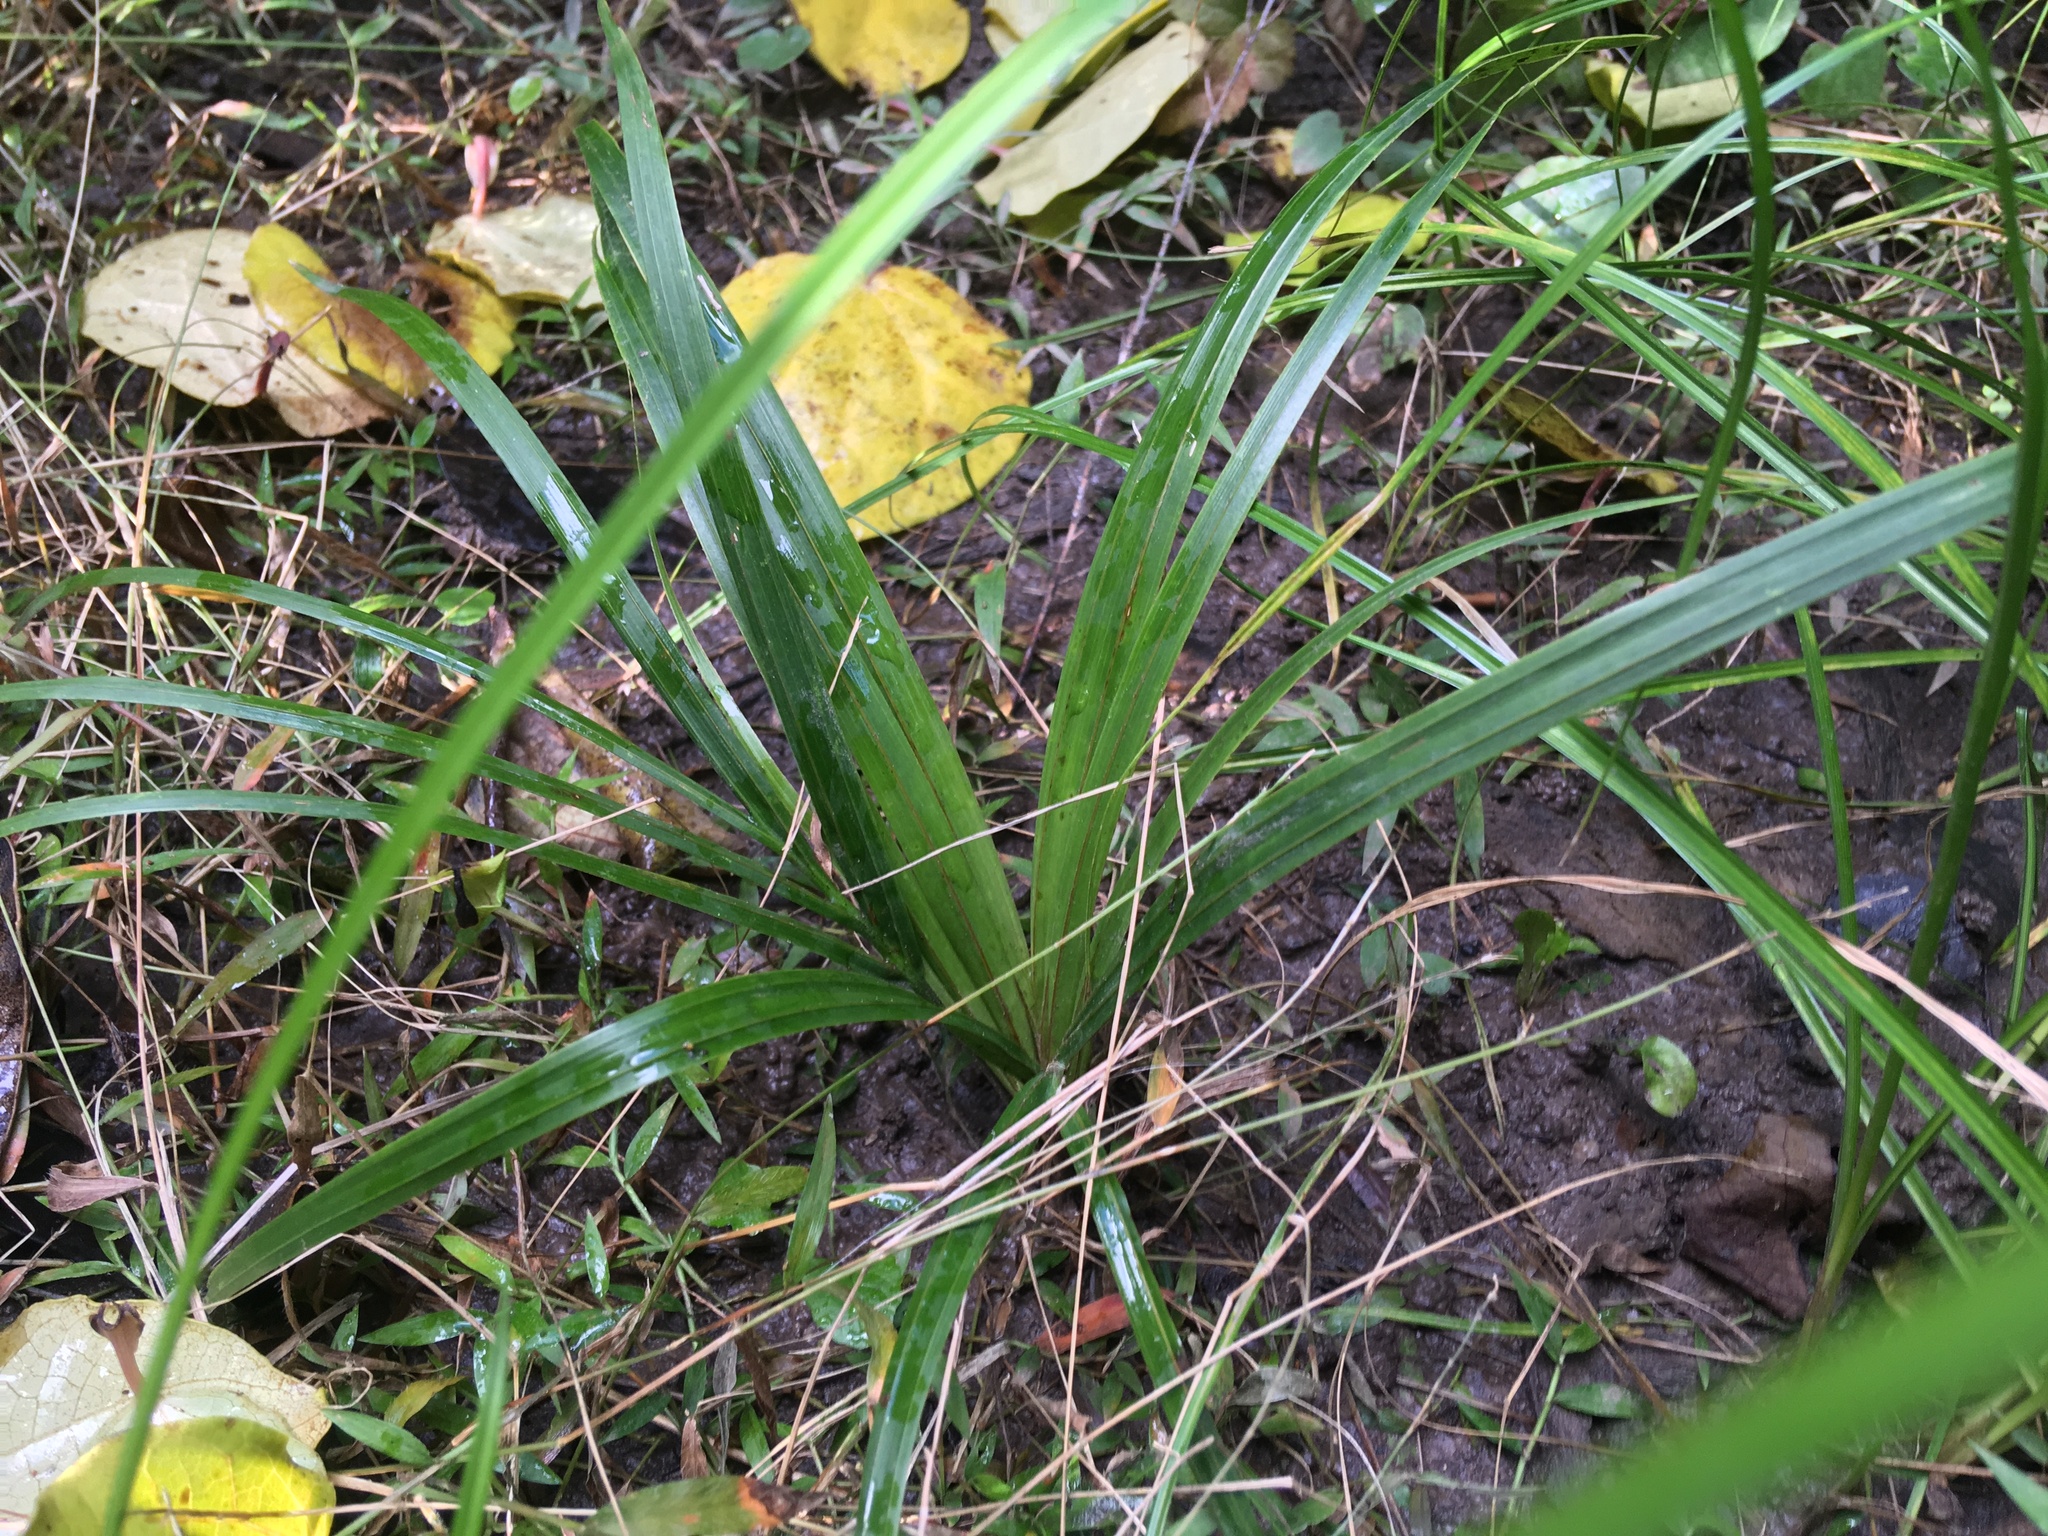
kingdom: Plantae
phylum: Tracheophyta
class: Liliopsida
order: Arecales
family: Arecaceae
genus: Rhopalostylis
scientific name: Rhopalostylis sapida
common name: Feather-duster palm
